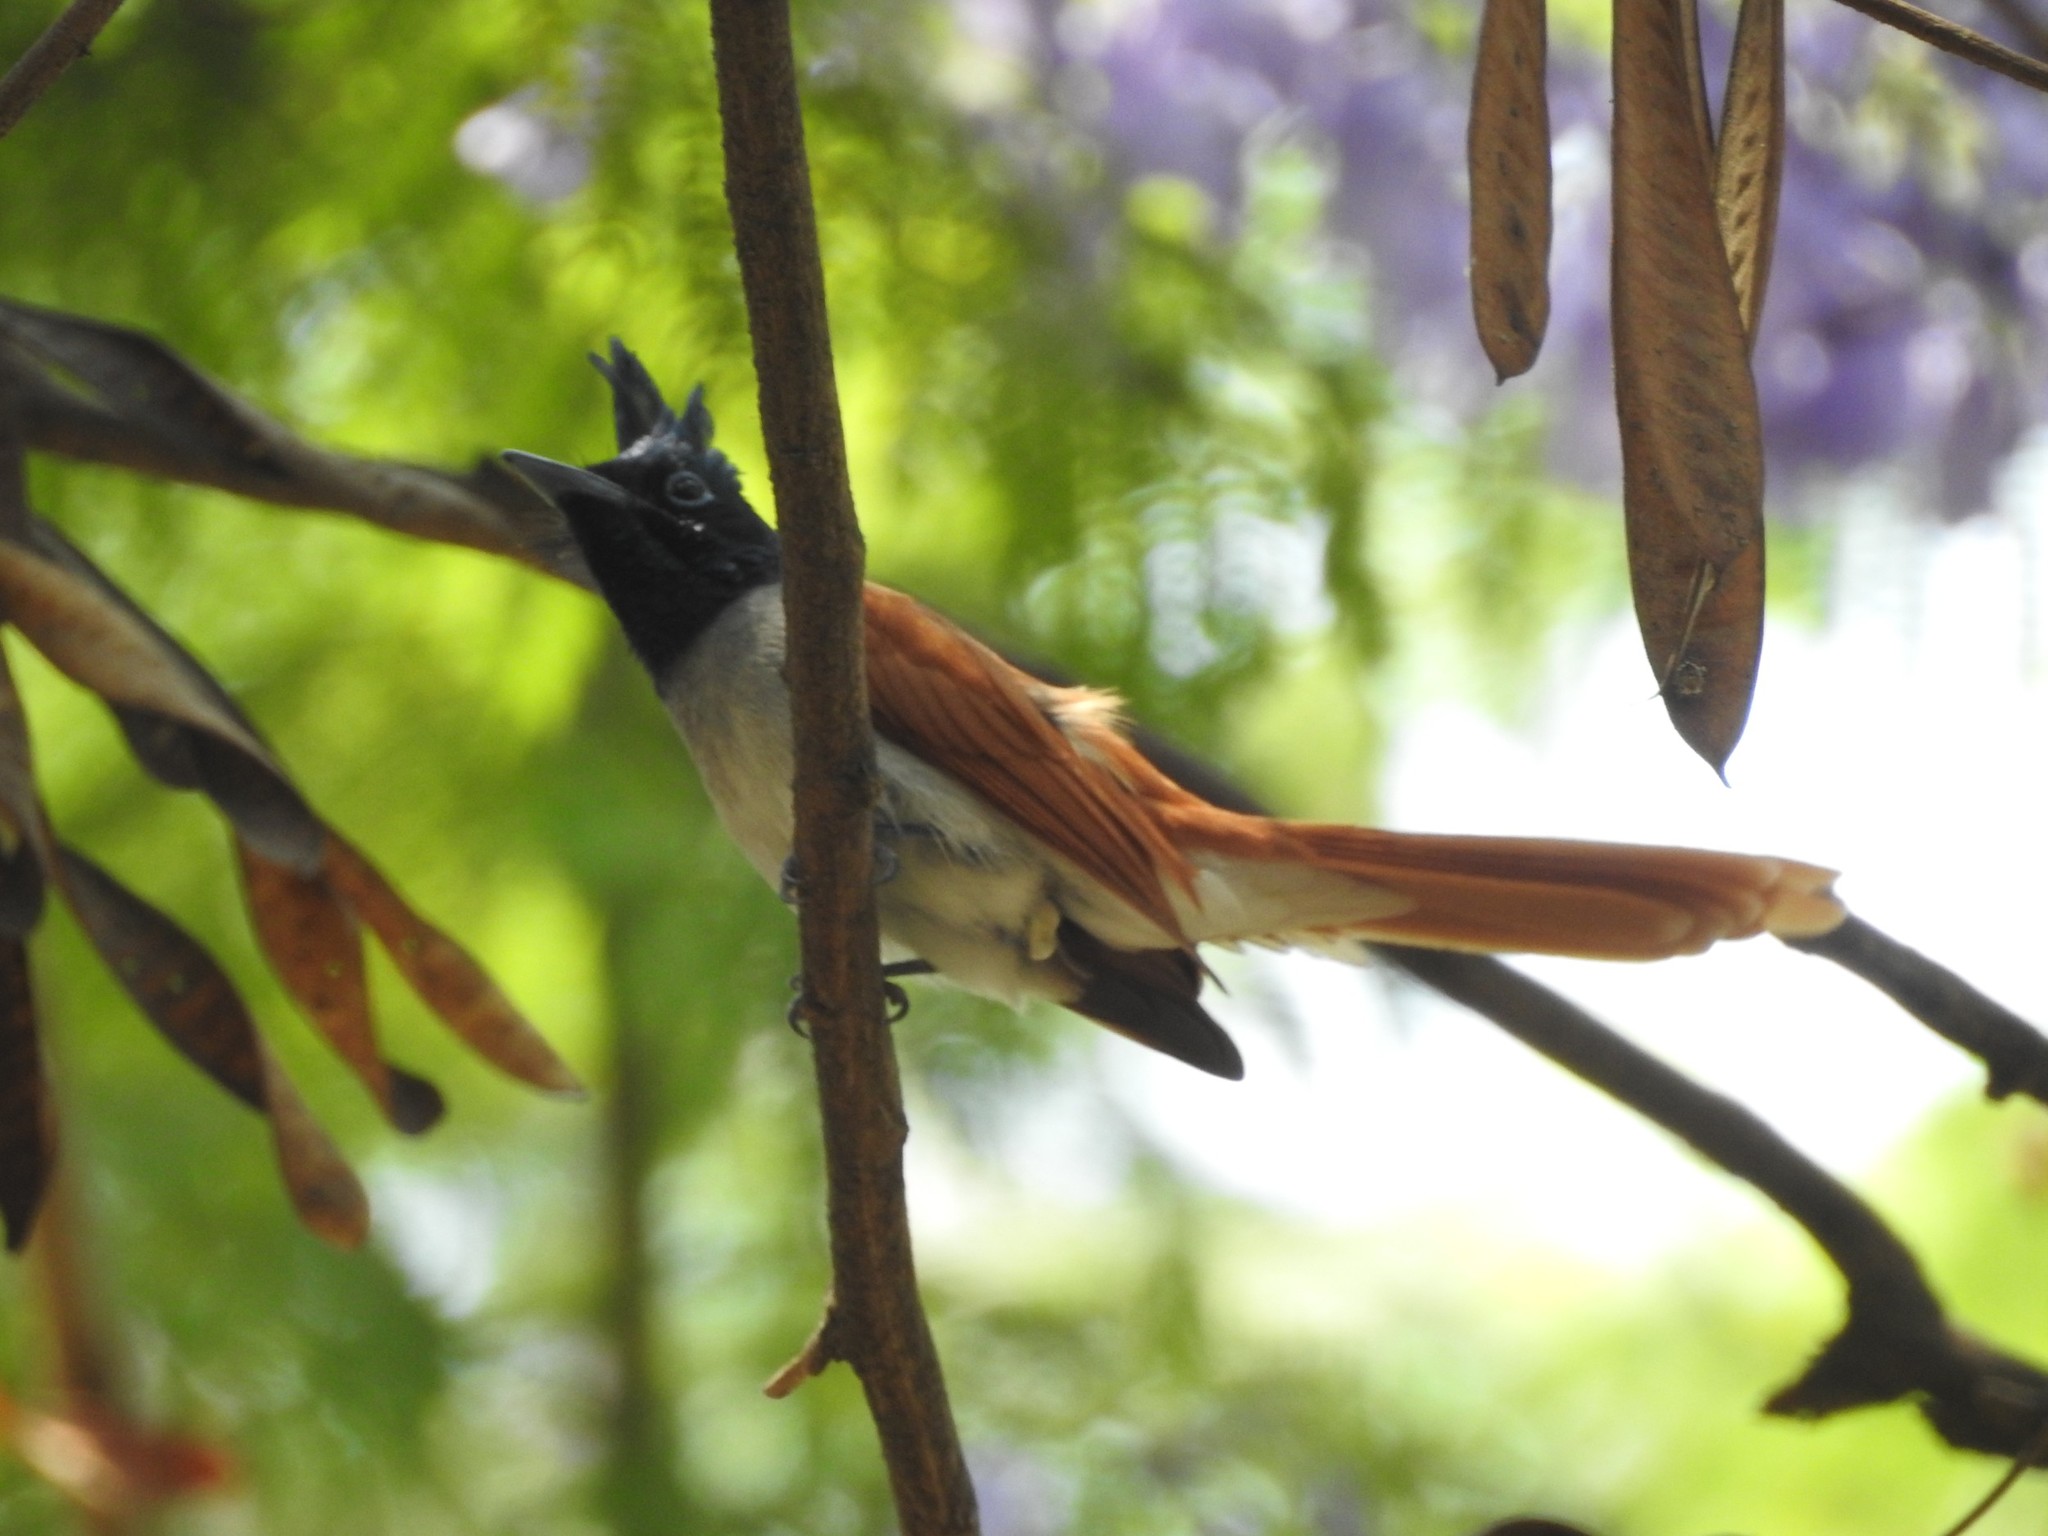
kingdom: Animalia
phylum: Chordata
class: Aves
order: Passeriformes
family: Monarchidae
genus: Terpsiphone
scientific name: Terpsiphone paradisi
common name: Indian paradise flycatcher
